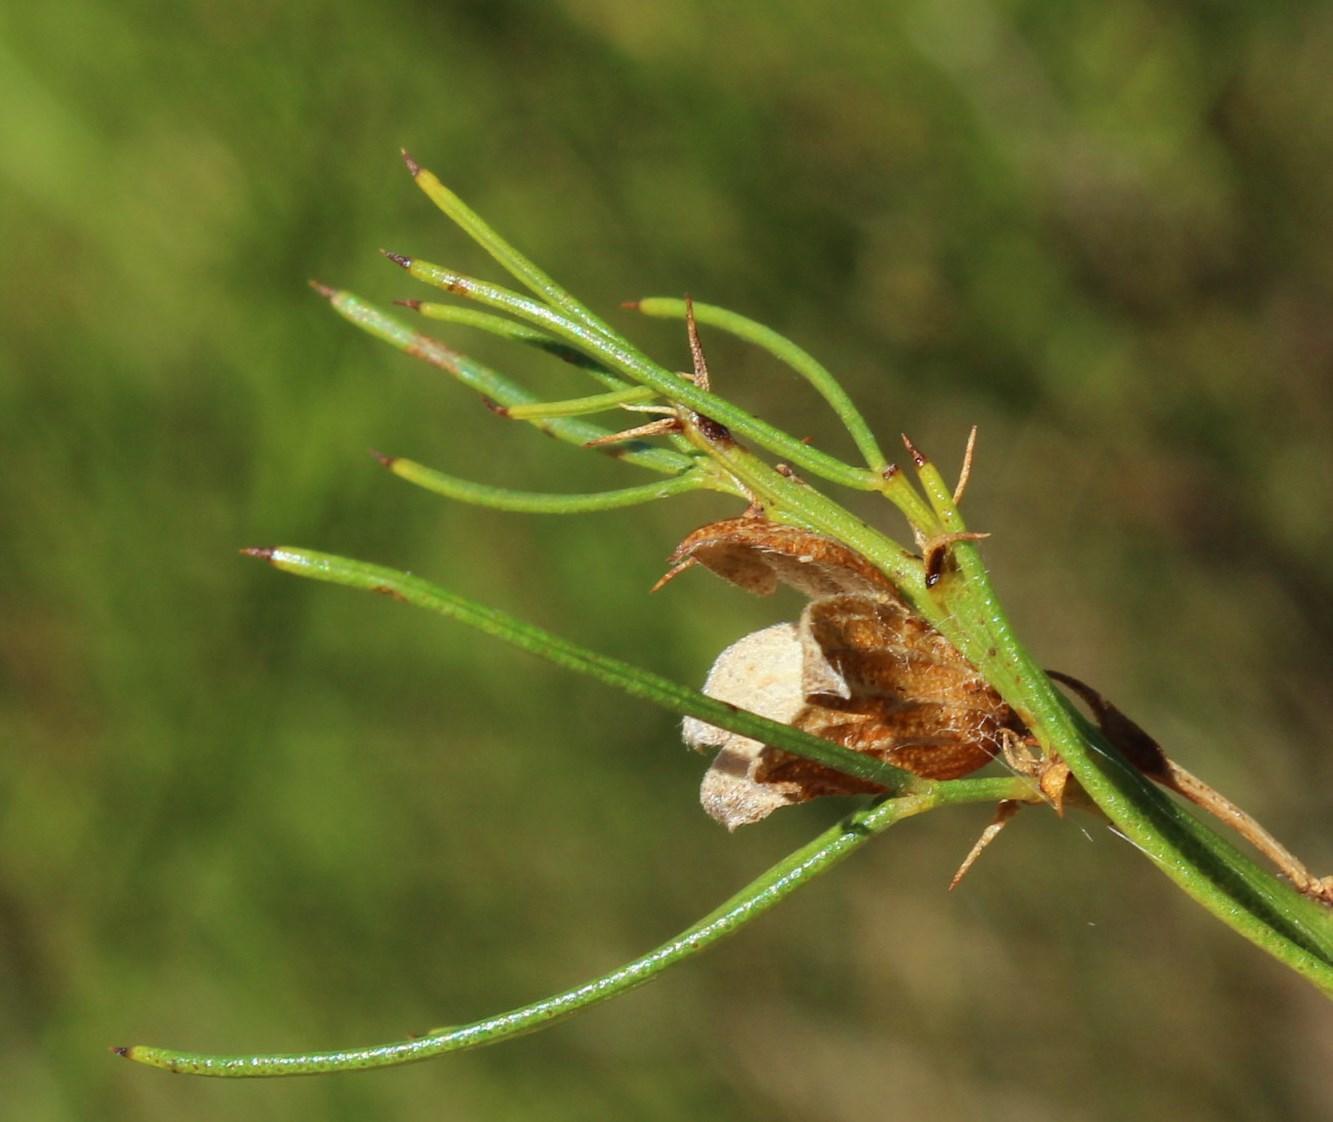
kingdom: Plantae
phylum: Tracheophyta
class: Magnoliopsida
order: Fabales
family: Fabaceae
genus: Psoralea
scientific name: Psoralea
